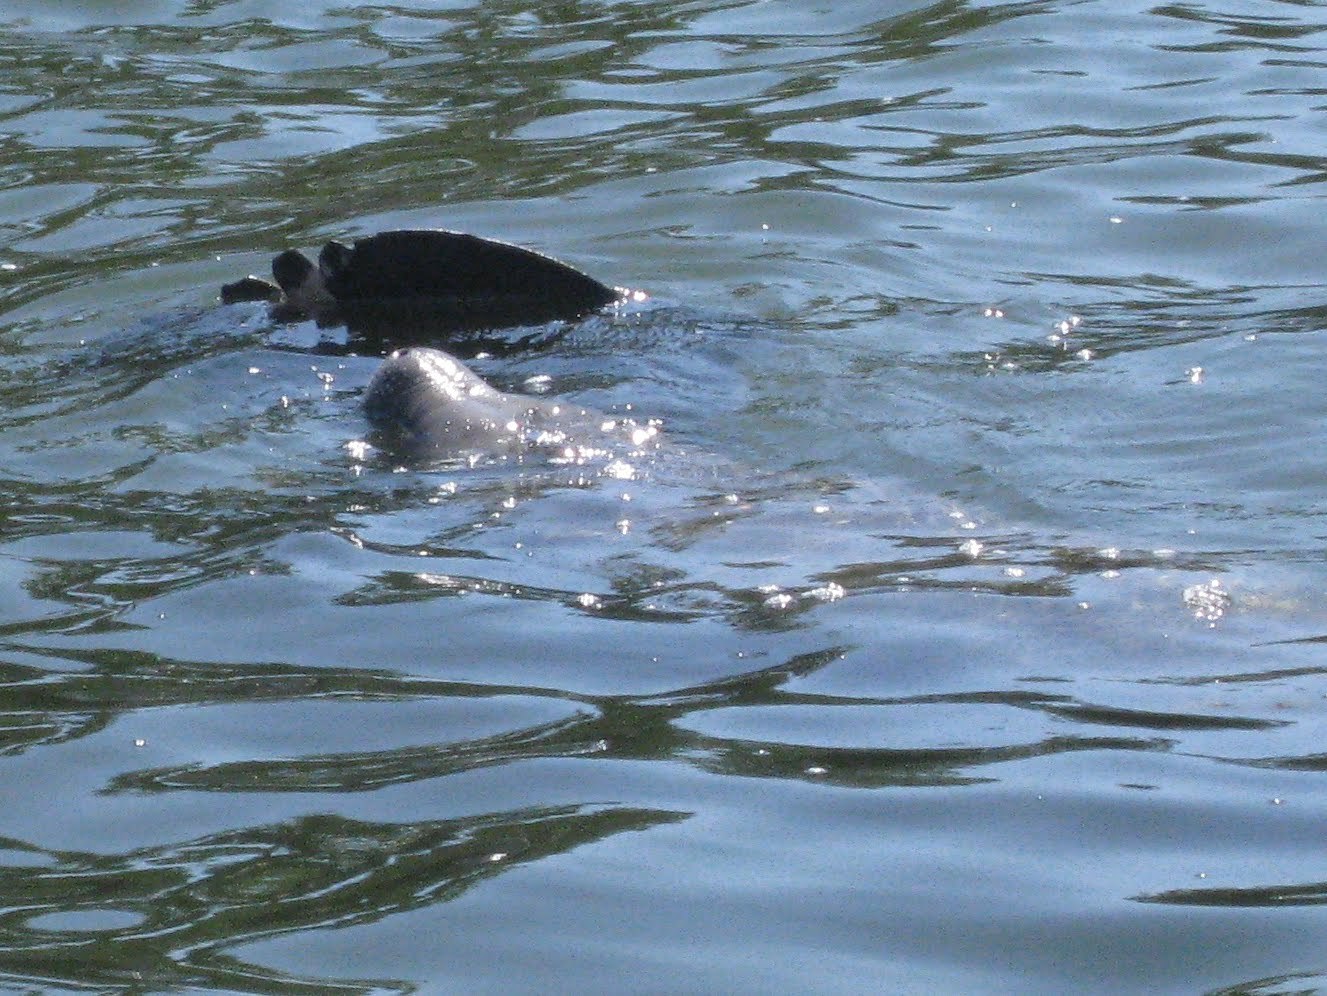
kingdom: Animalia
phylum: Chordata
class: Mammalia
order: Sirenia
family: Trichechidae
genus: Trichechus
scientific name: Trichechus manatus
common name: West indian manatee
